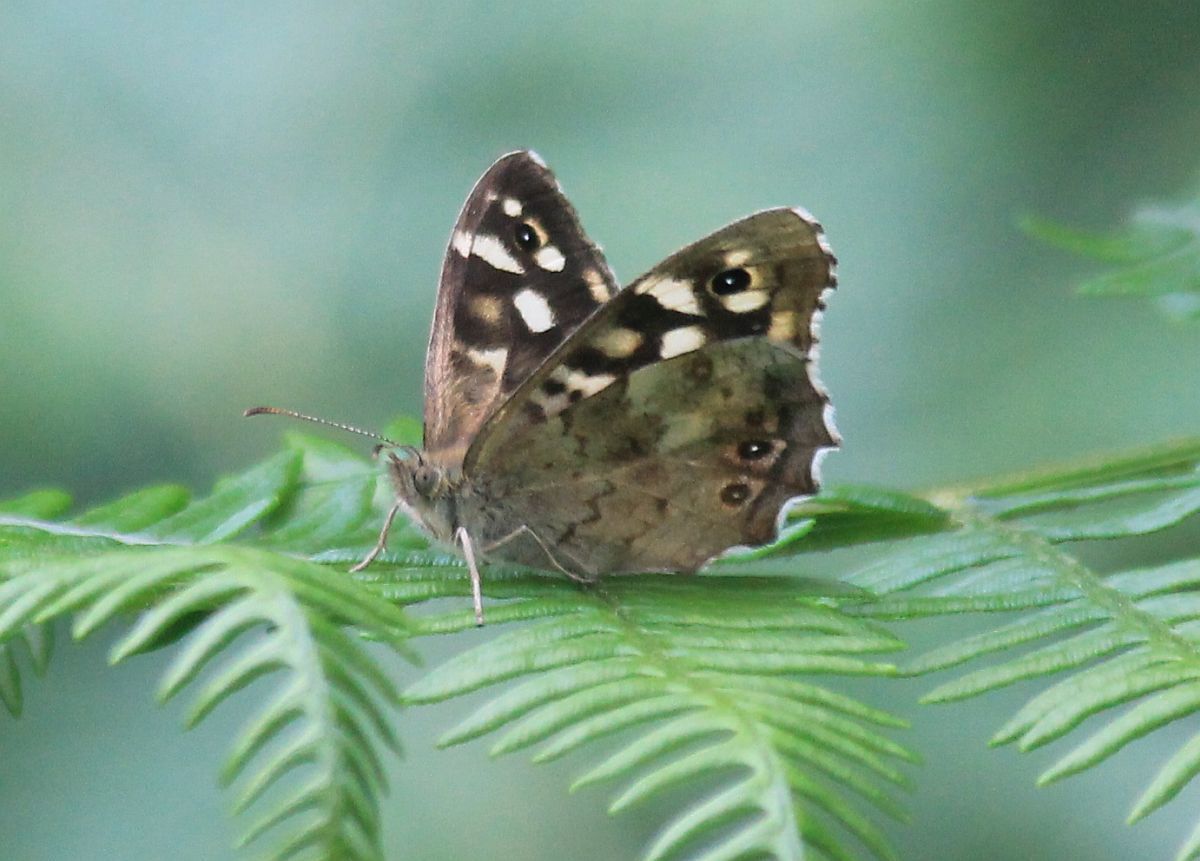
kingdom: Animalia
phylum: Arthropoda
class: Insecta
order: Lepidoptera
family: Nymphalidae
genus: Pararge
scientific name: Pararge aegeria
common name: Speckled wood
